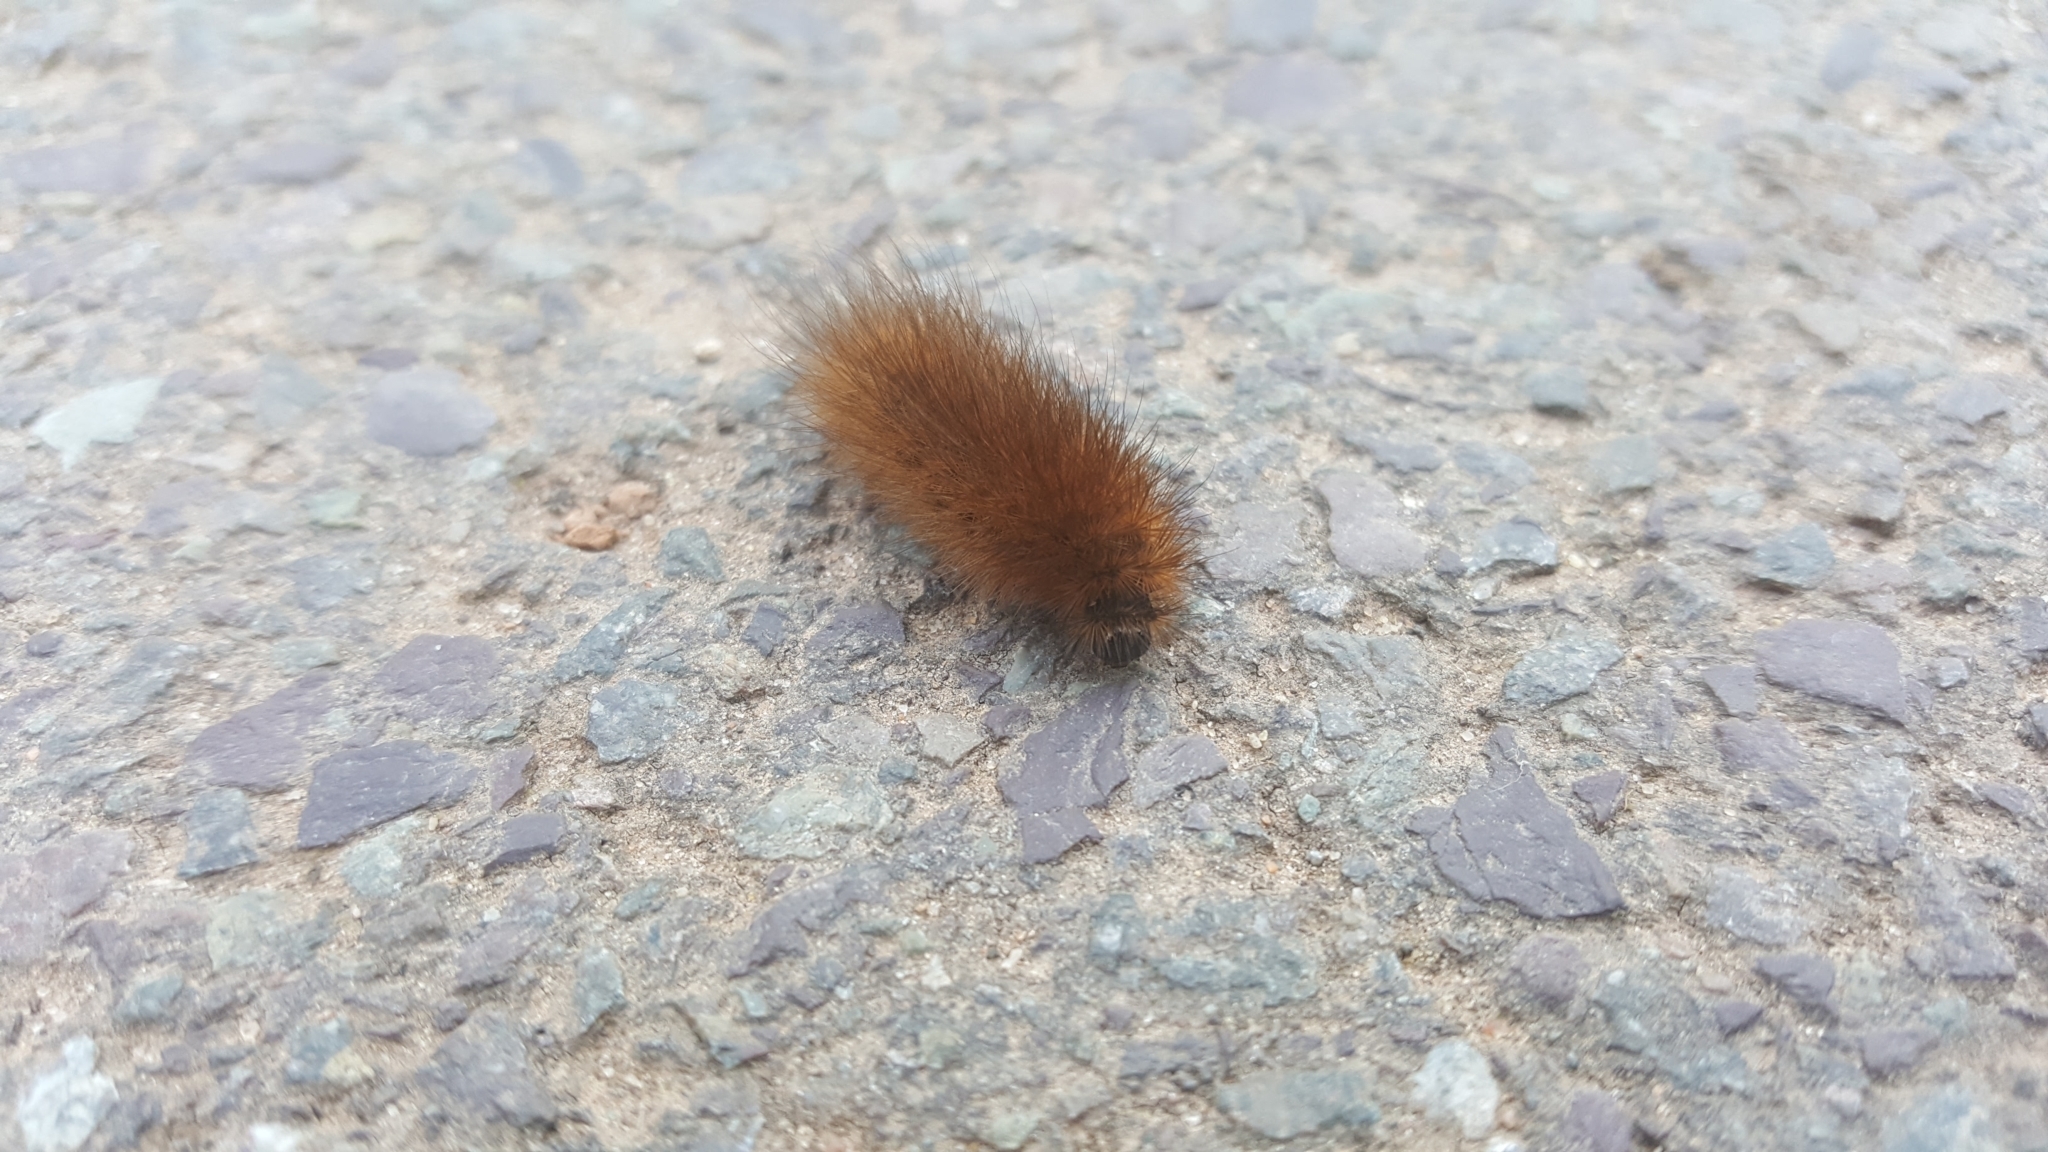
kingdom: Animalia
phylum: Arthropoda
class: Insecta
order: Lepidoptera
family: Erebidae
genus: Phragmatobia
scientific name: Phragmatobia fuliginosa
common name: Ruby tiger
